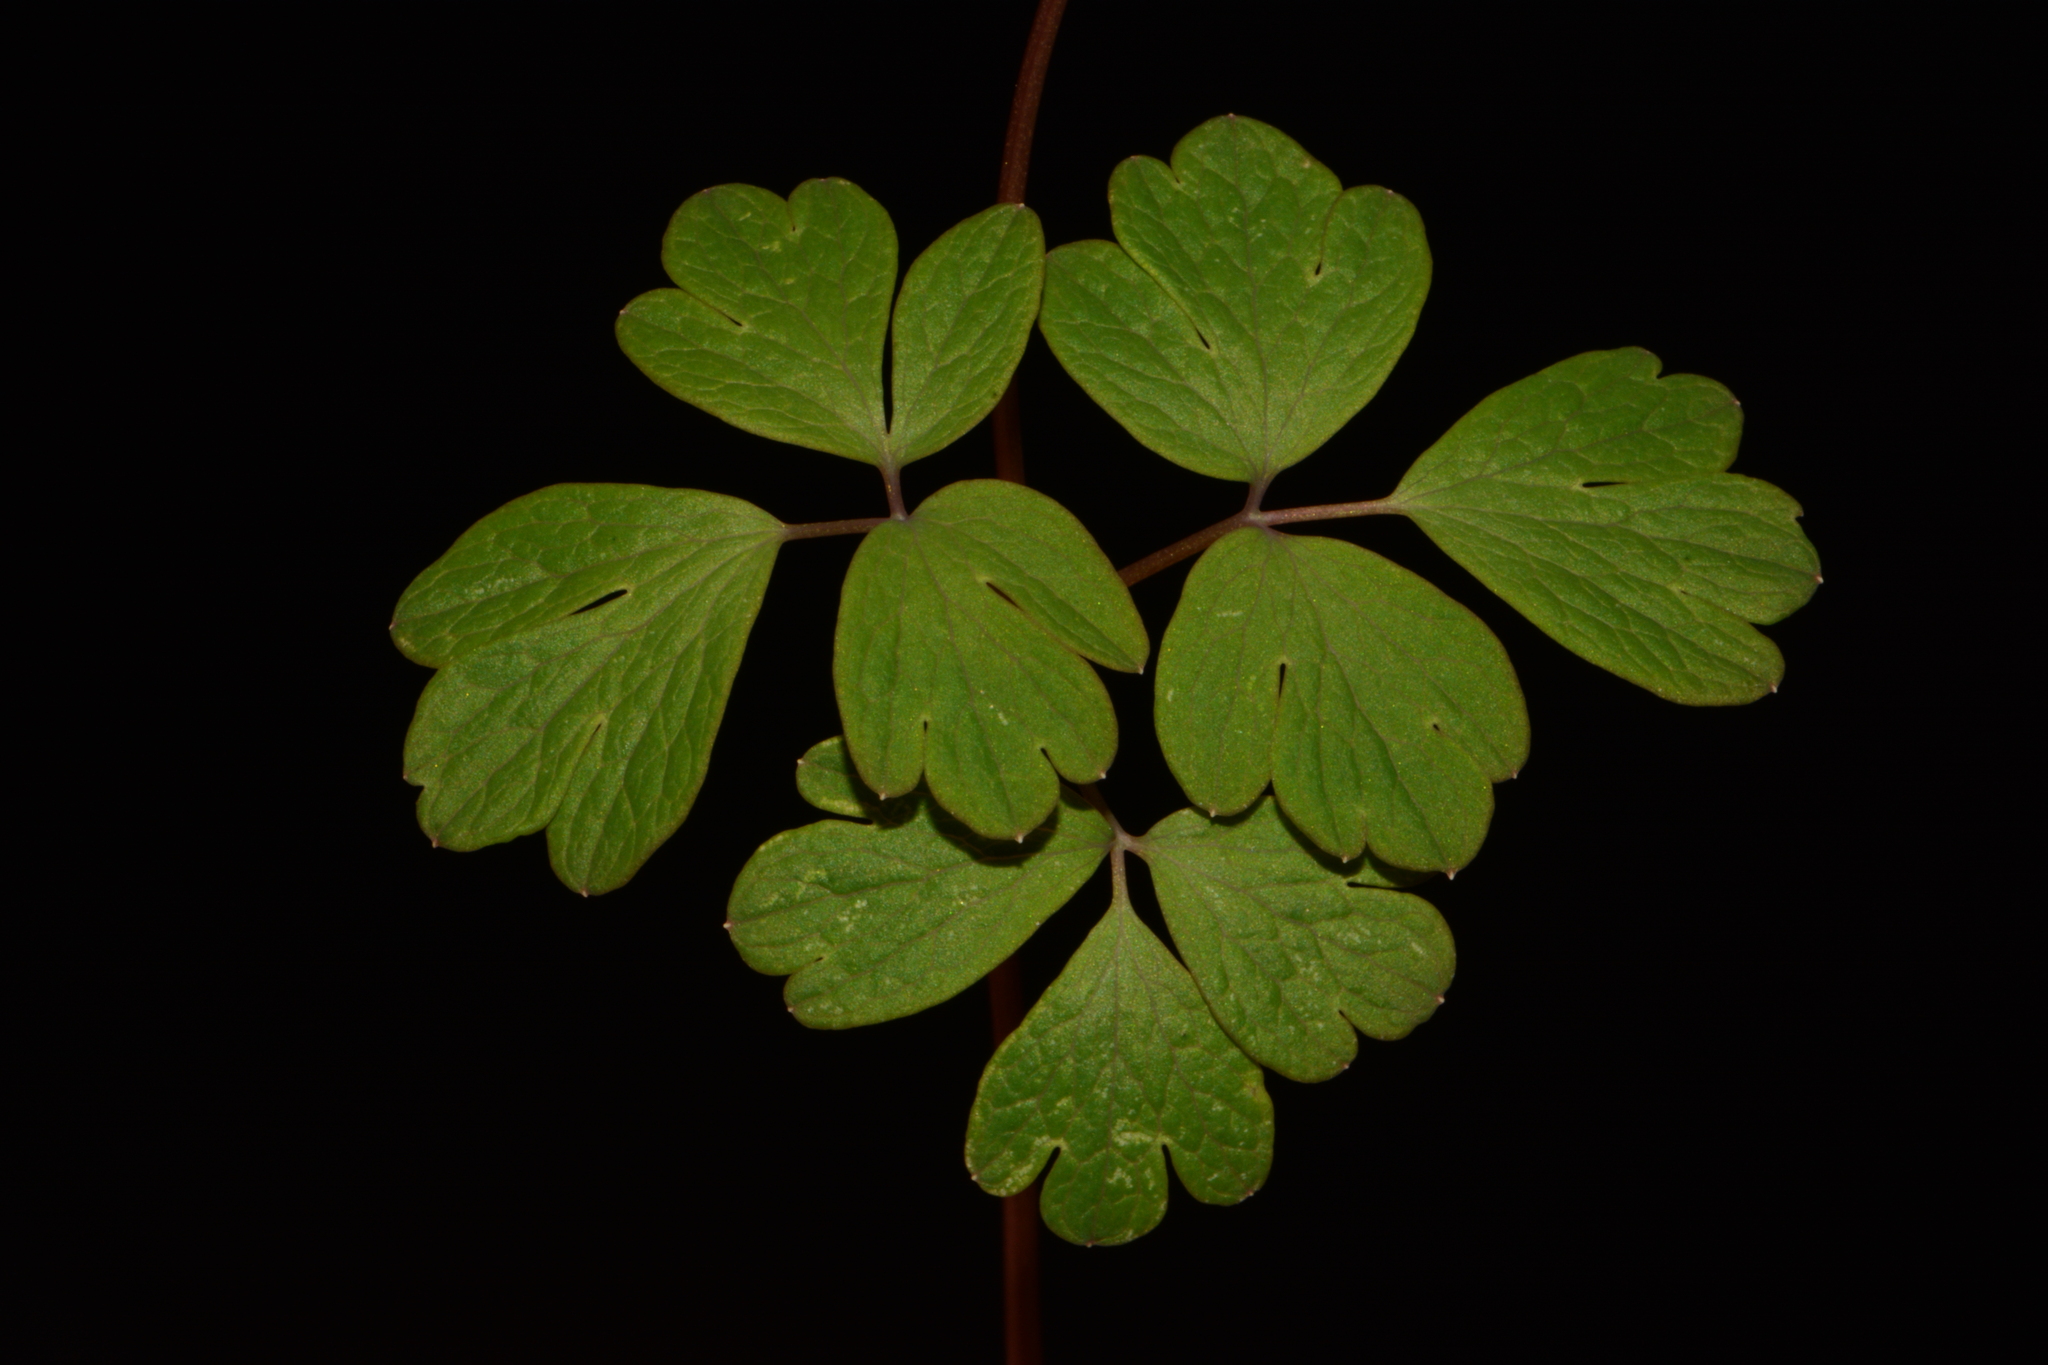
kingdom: Plantae
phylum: Tracheophyta
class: Magnoliopsida
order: Ranunculales
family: Ranunculaceae
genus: Enemion
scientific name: Enemion biternatum
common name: Eastern false rue-anemone
